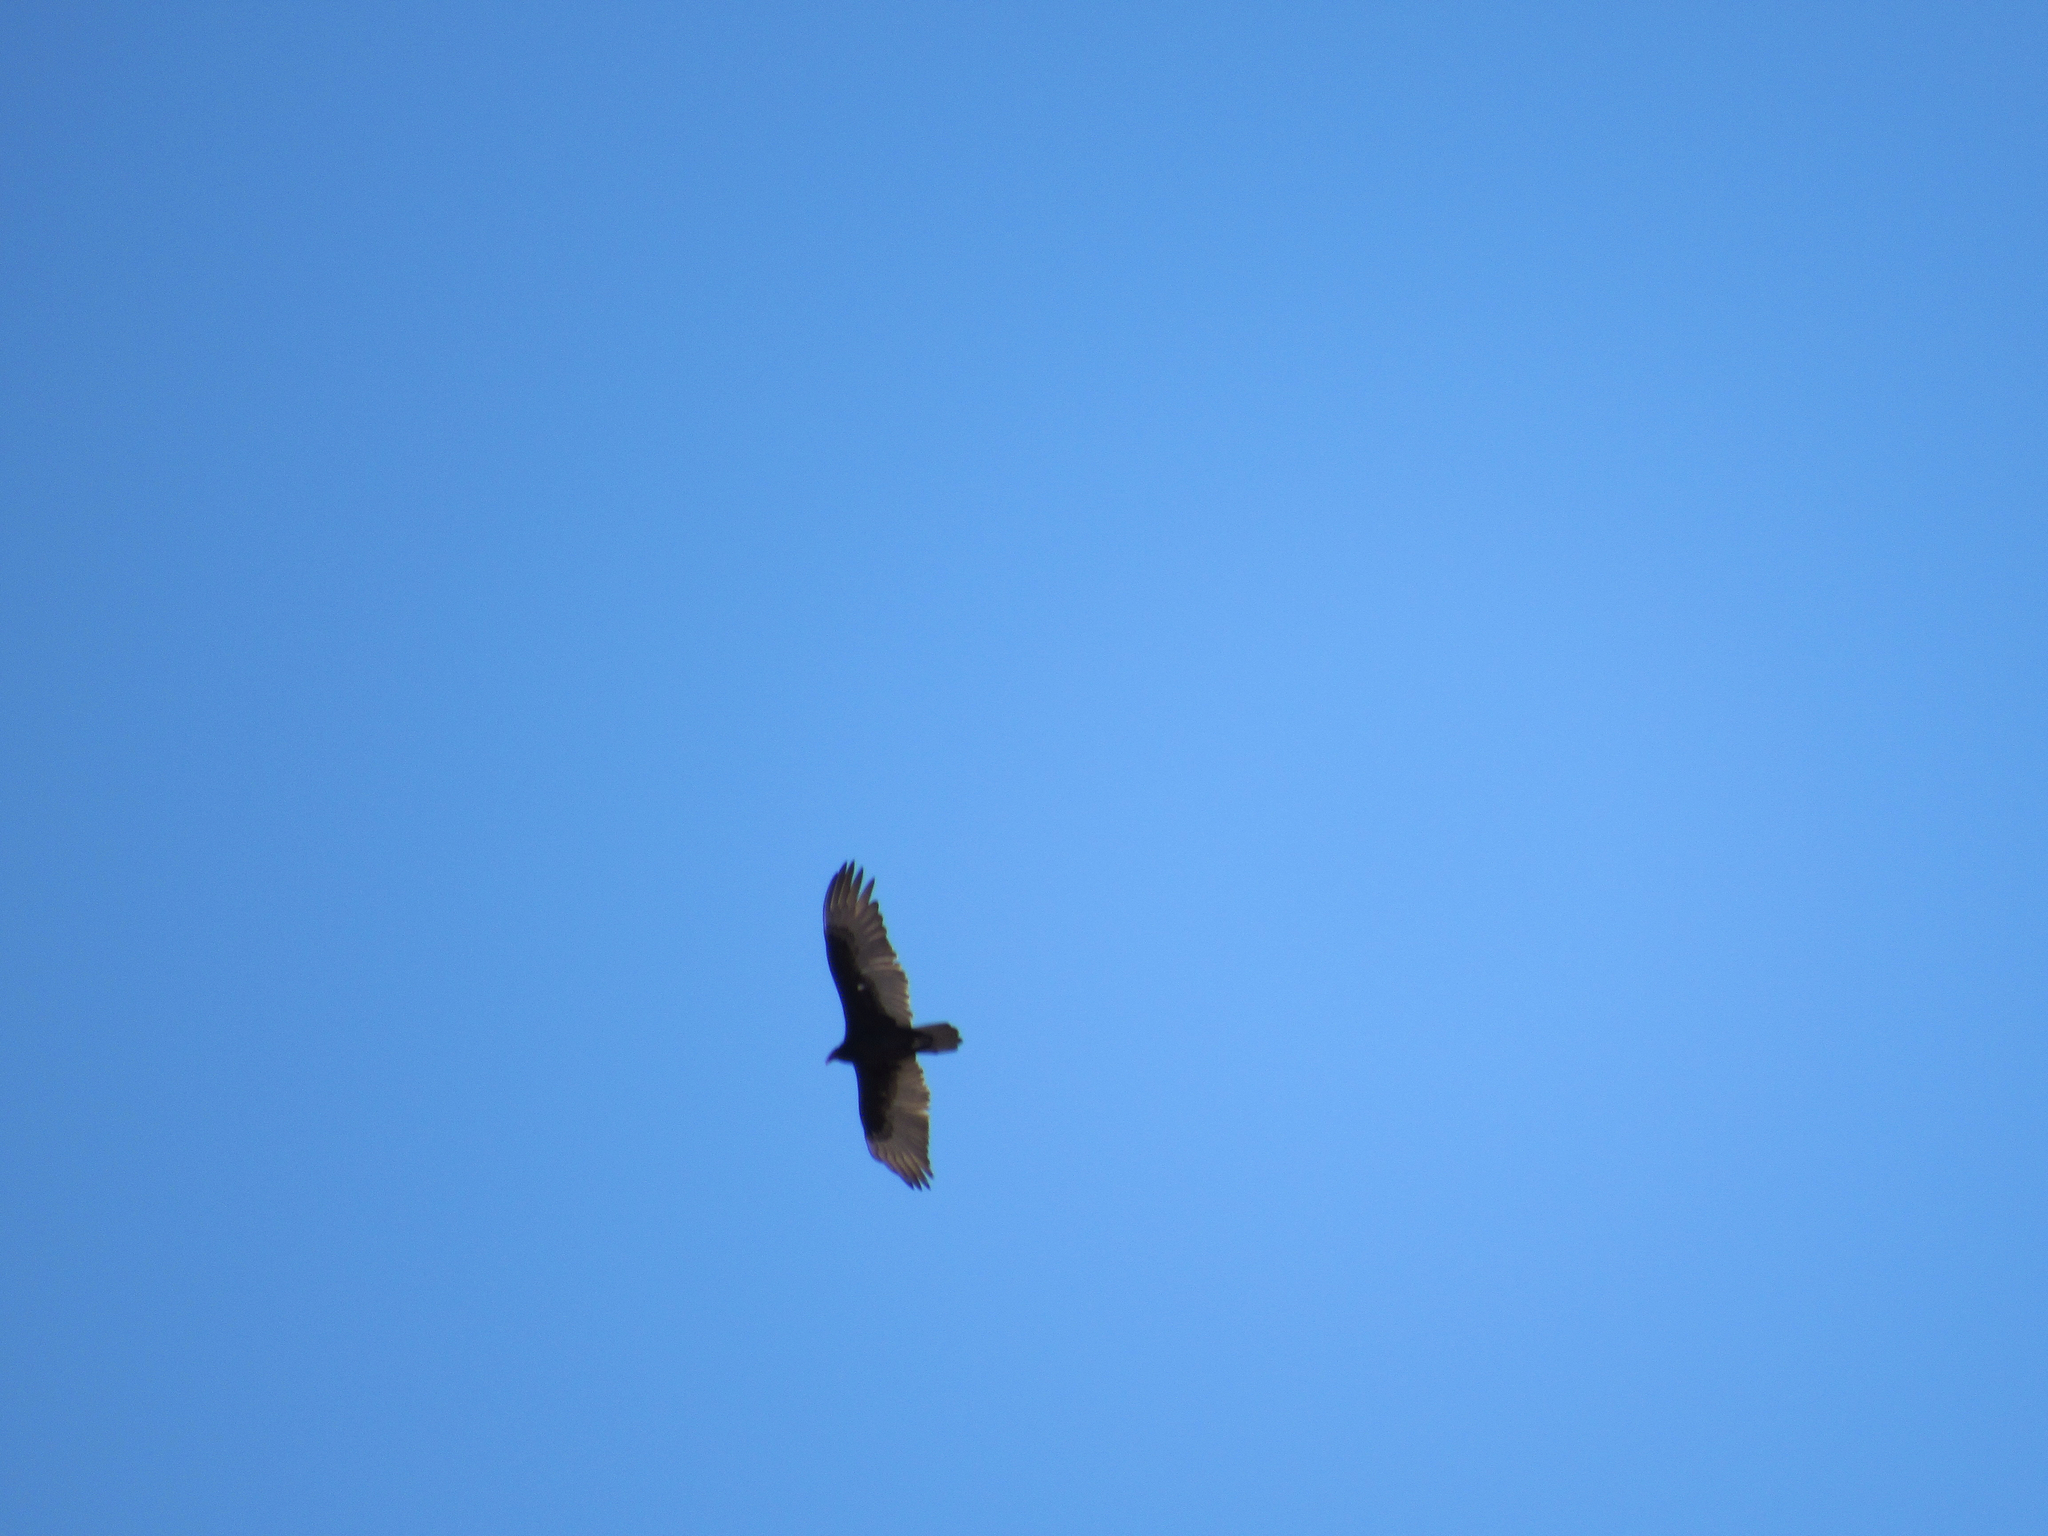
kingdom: Animalia
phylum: Chordata
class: Aves
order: Accipitriformes
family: Cathartidae
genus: Cathartes
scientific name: Cathartes aura
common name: Turkey vulture
